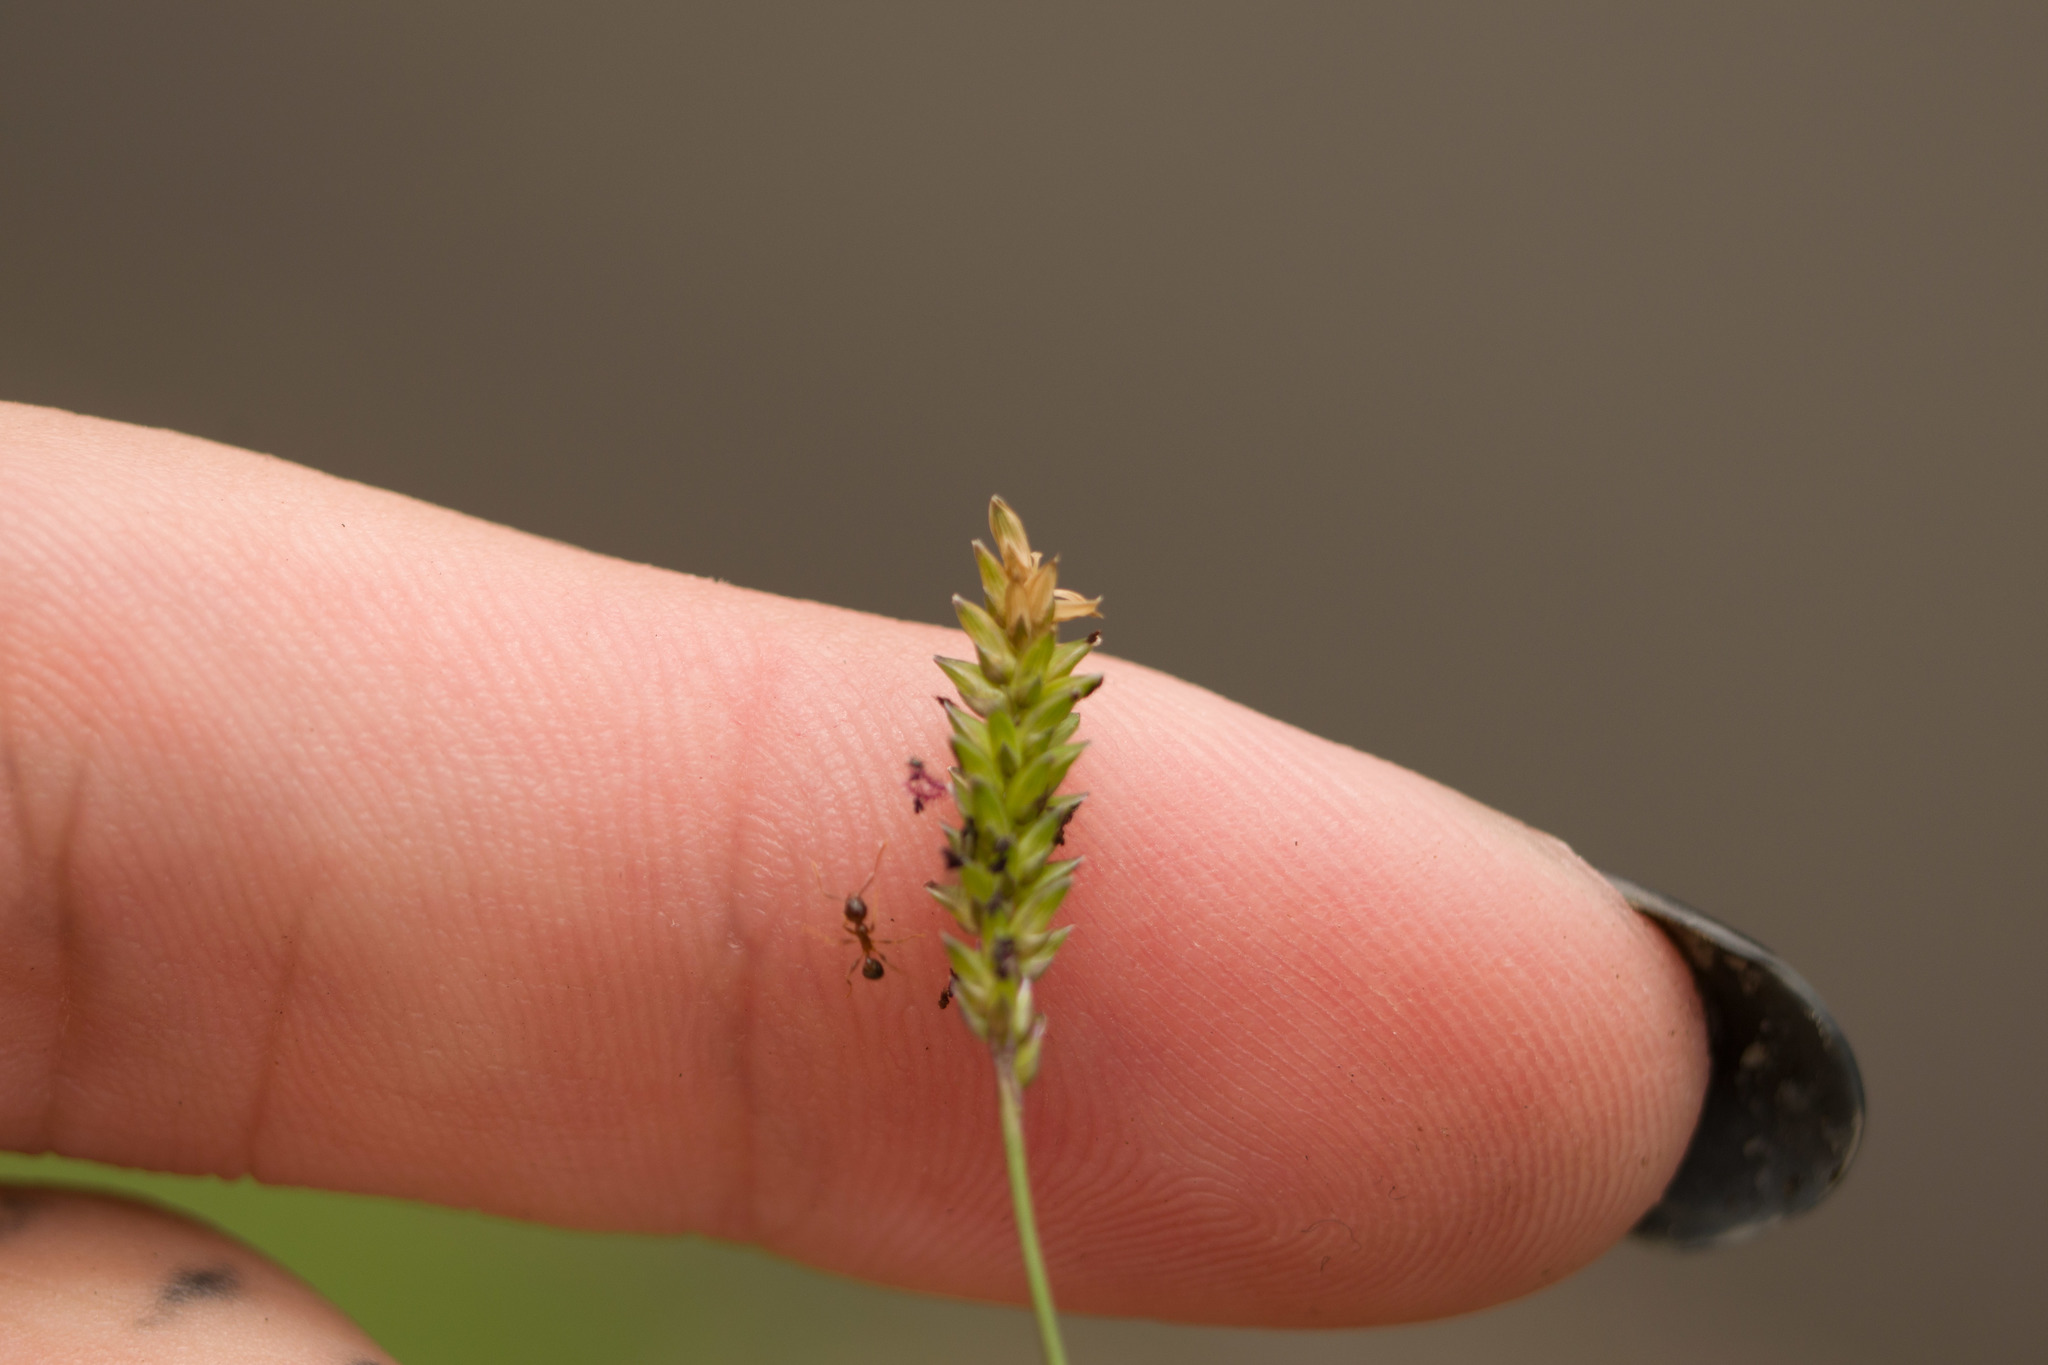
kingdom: Plantae
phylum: Tracheophyta
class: Liliopsida
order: Poales
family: Poaceae
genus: Sacciolepis
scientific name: Sacciolepis indica
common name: Glenwoodgrass
